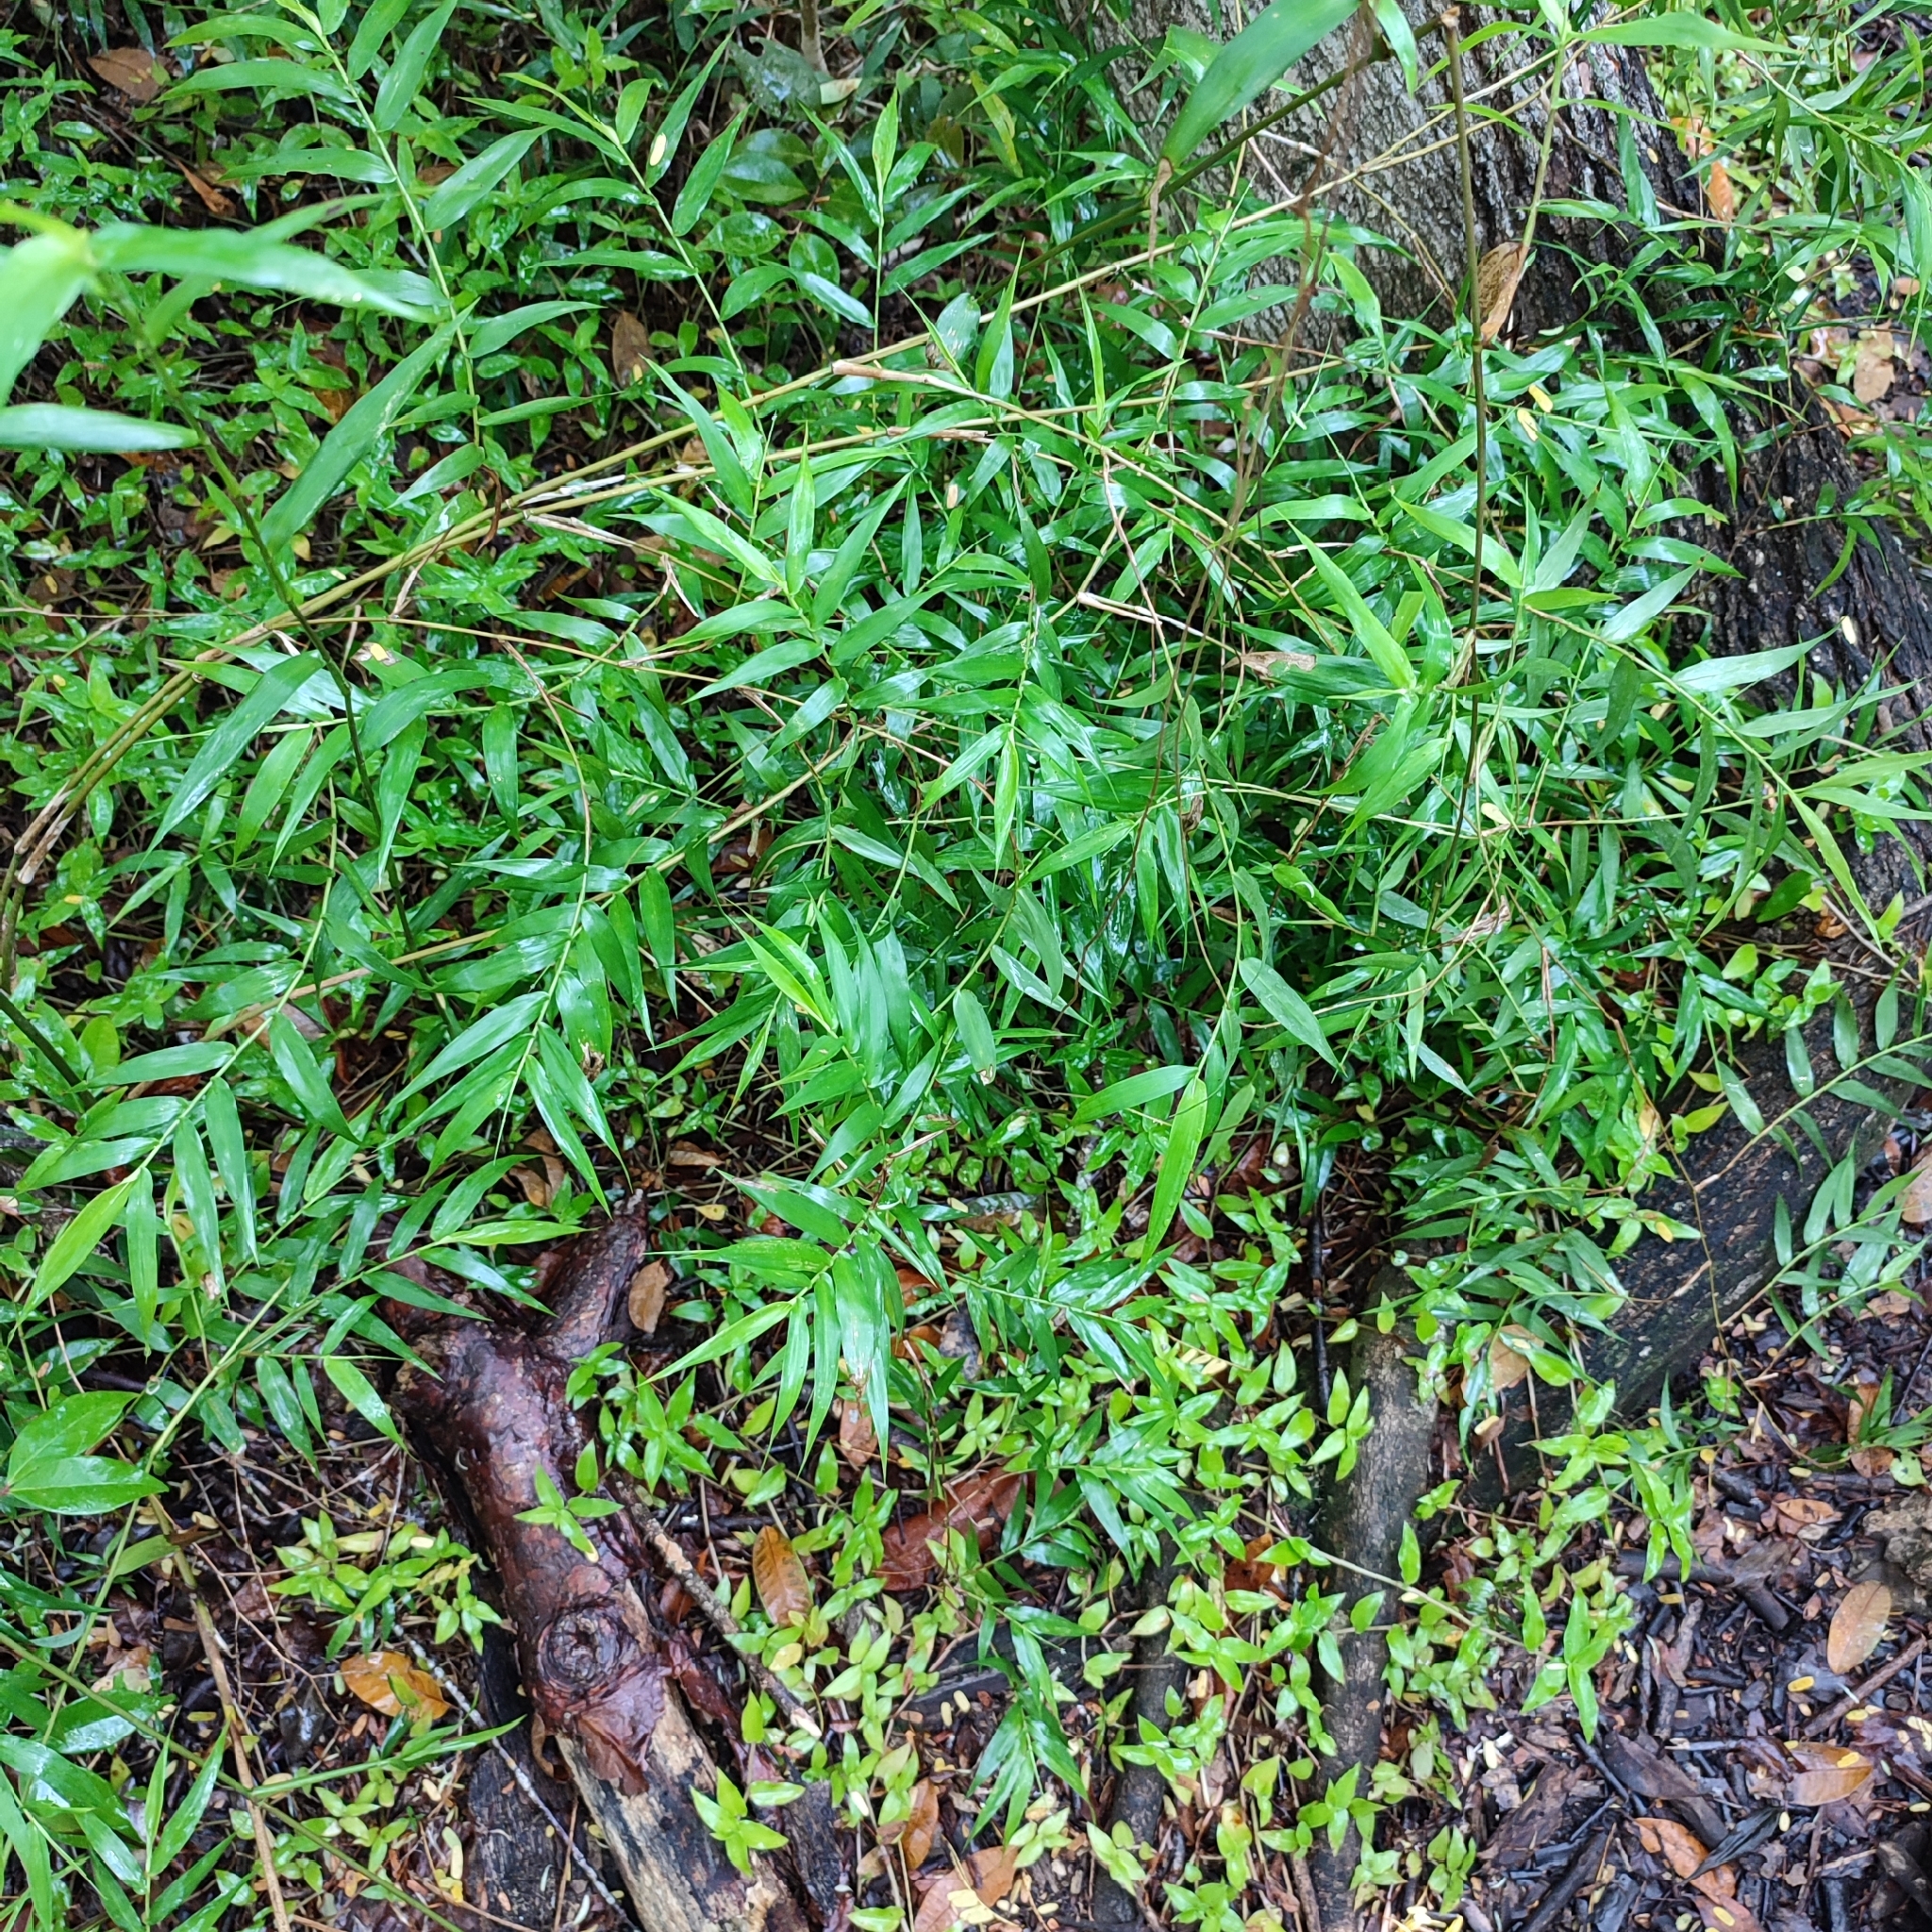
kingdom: Plantae
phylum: Tracheophyta
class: Liliopsida
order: Poales
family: Poaceae
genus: Lasiacis
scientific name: Lasiacis divaricata
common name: Smallcane
